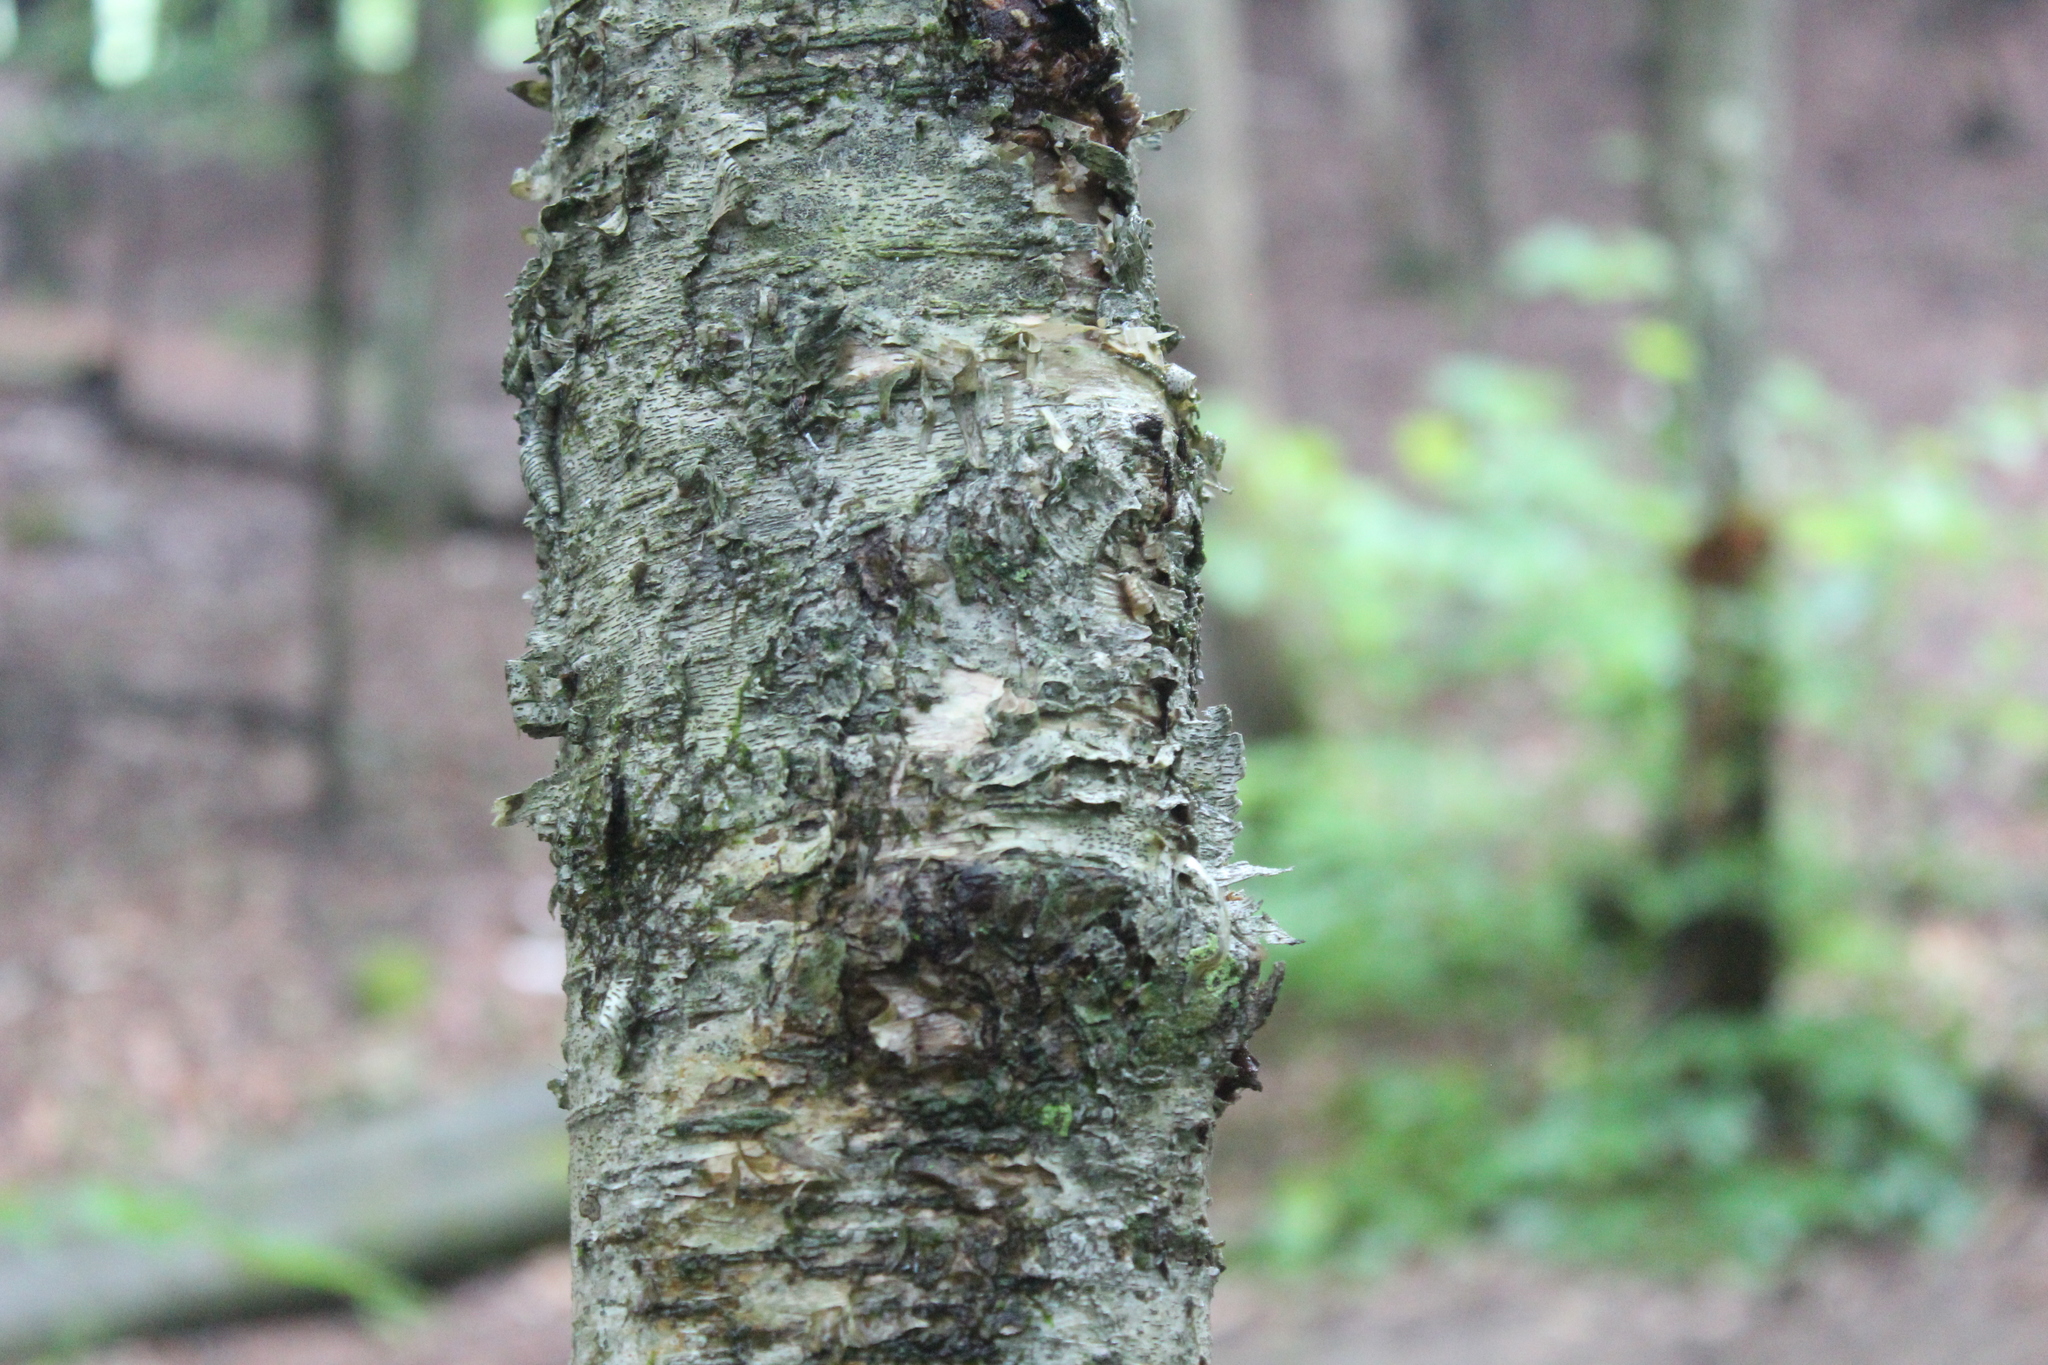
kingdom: Plantae
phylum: Tracheophyta
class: Magnoliopsida
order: Fagales
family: Betulaceae
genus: Betula
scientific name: Betula alleghaniensis
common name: Yellow birch
